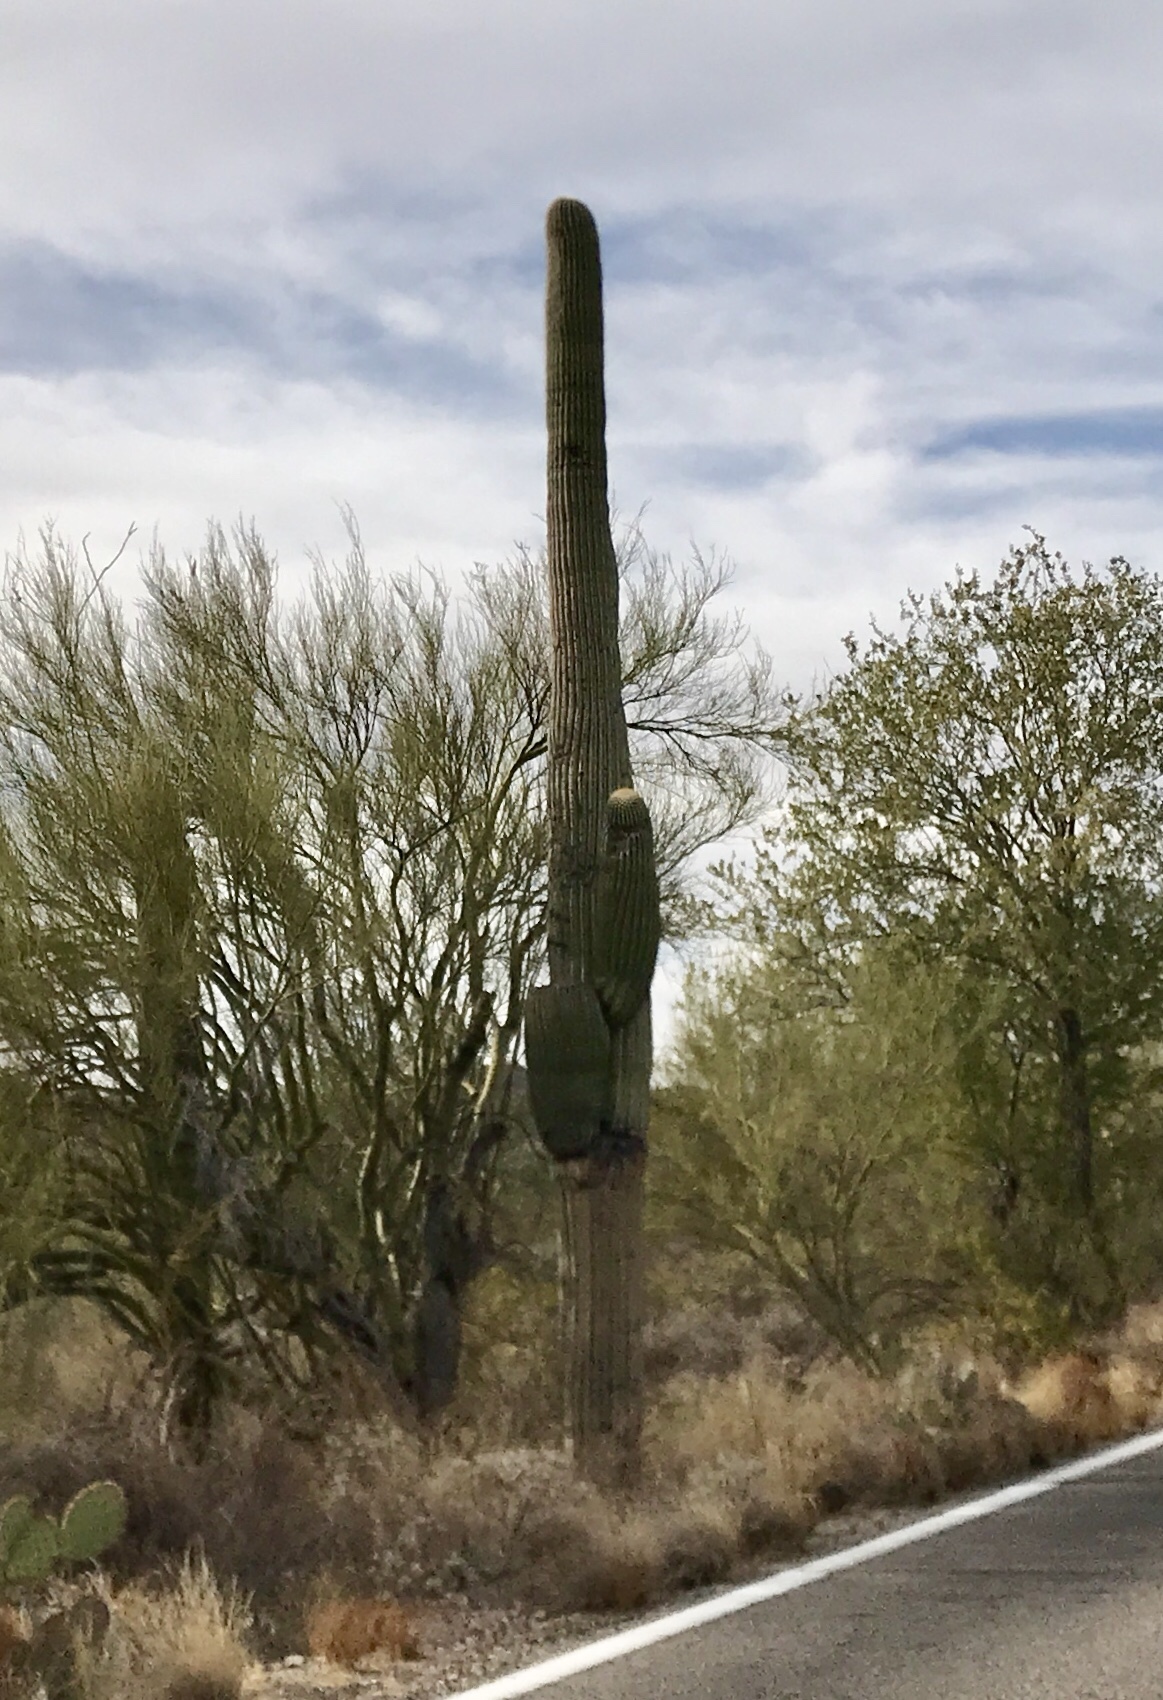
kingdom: Plantae
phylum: Tracheophyta
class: Magnoliopsida
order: Caryophyllales
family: Cactaceae
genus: Carnegiea
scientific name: Carnegiea gigantea
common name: Saguaro
